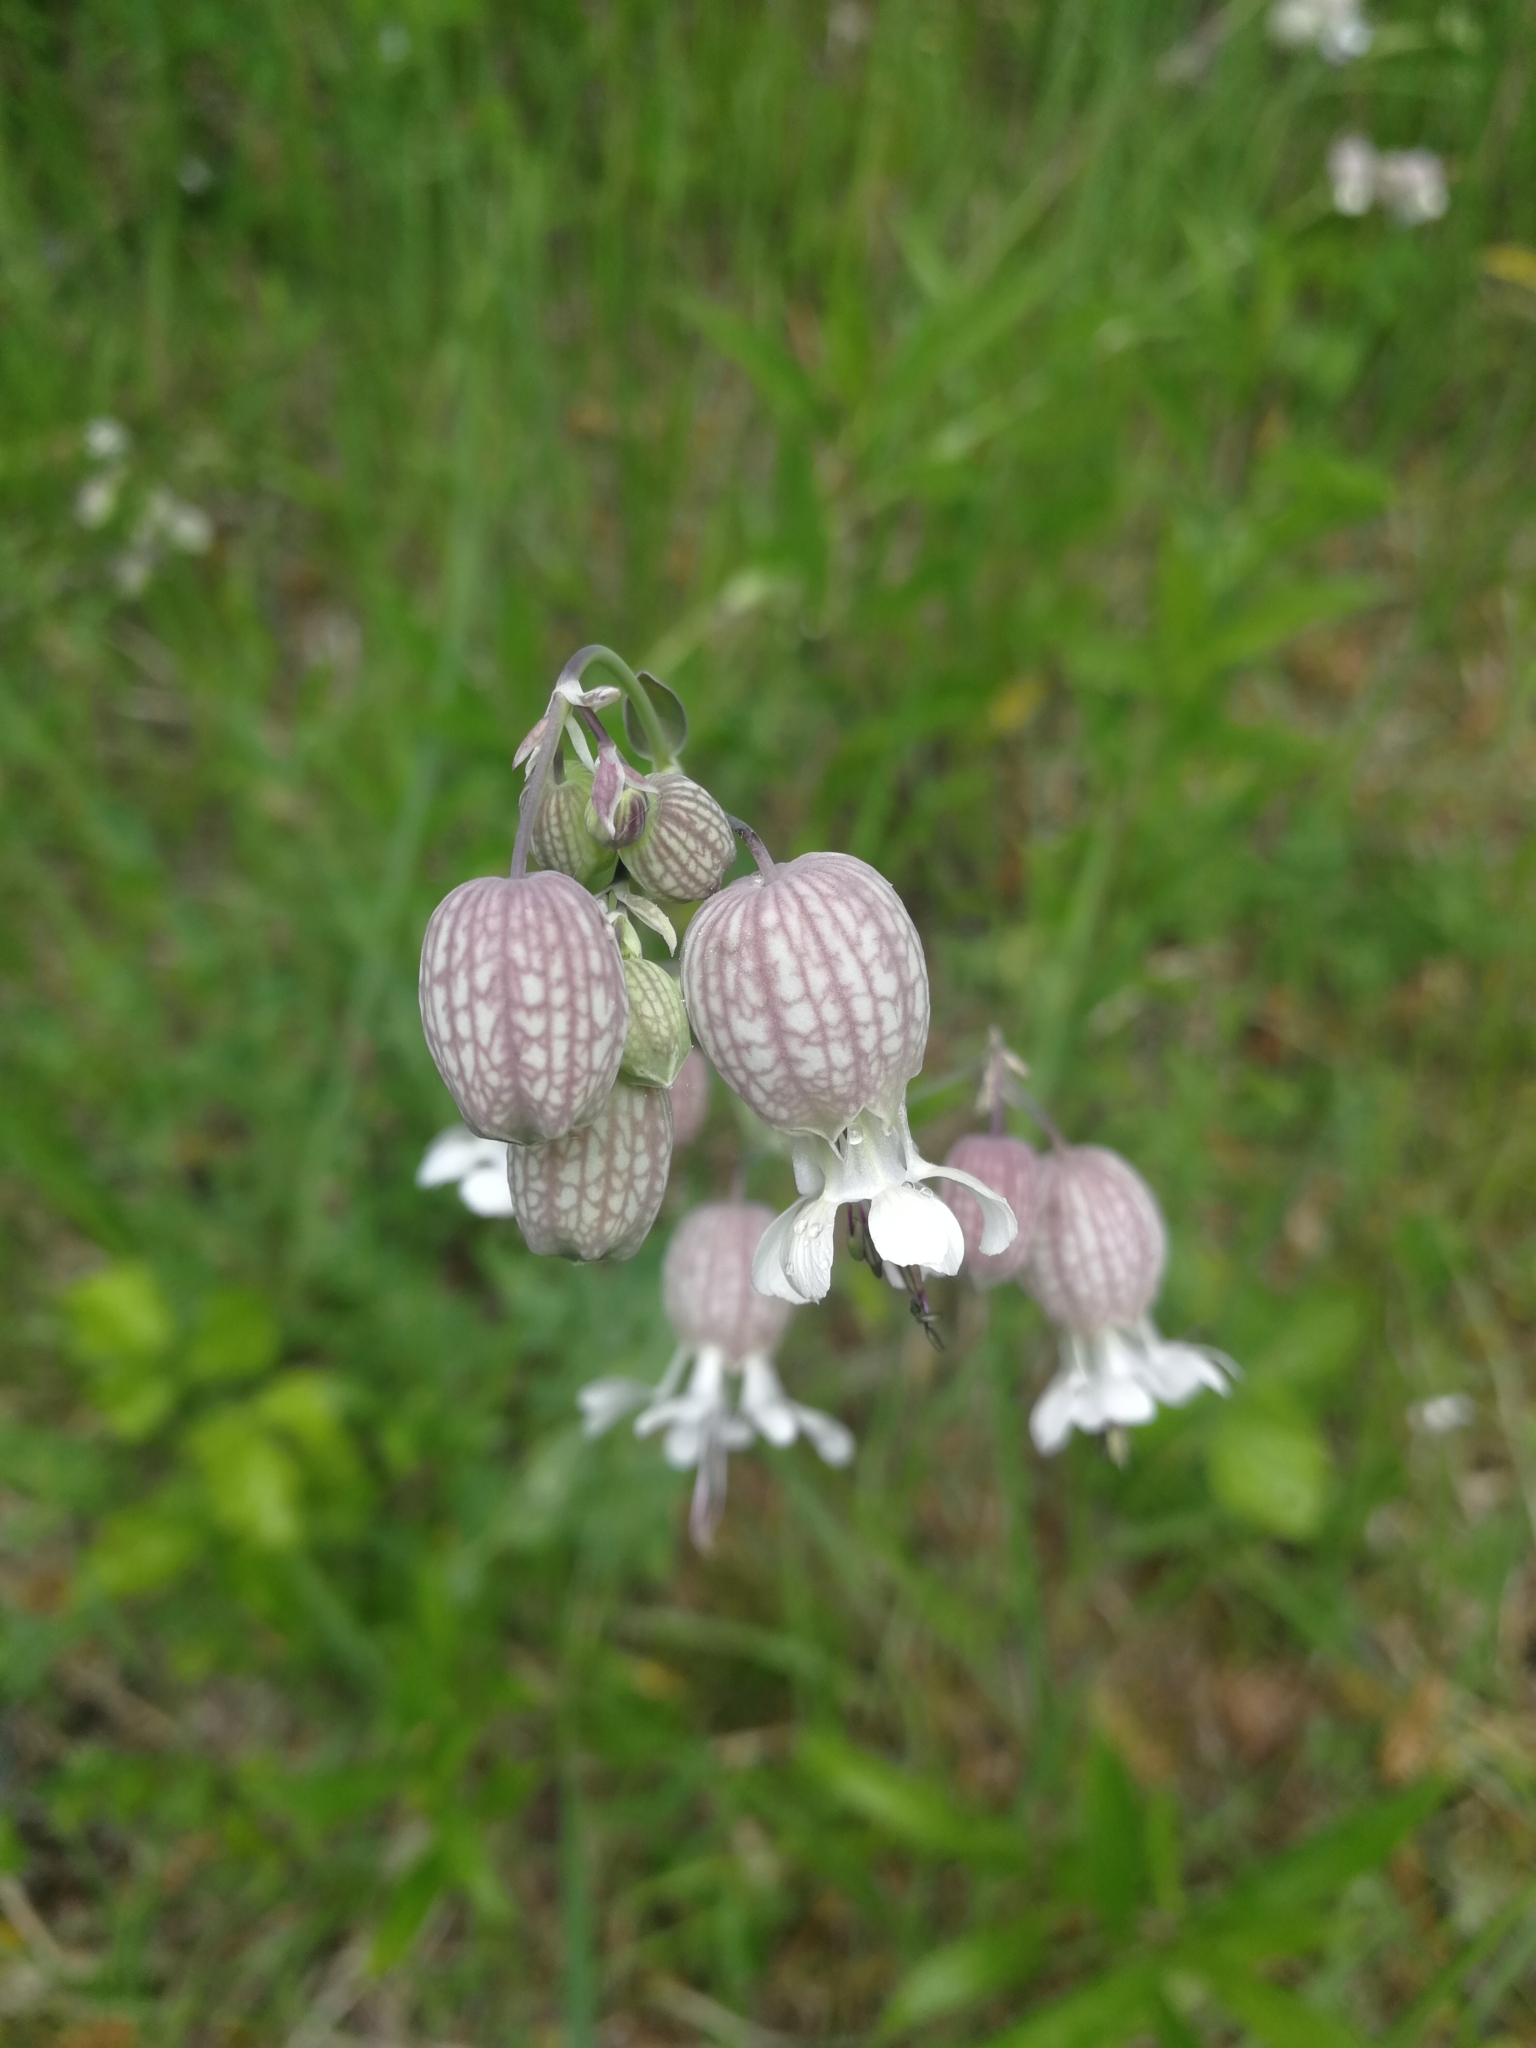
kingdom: Plantae
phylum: Tracheophyta
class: Magnoliopsida
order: Caryophyllales
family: Caryophyllaceae
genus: Silene
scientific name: Silene vulgaris
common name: Bladder campion
